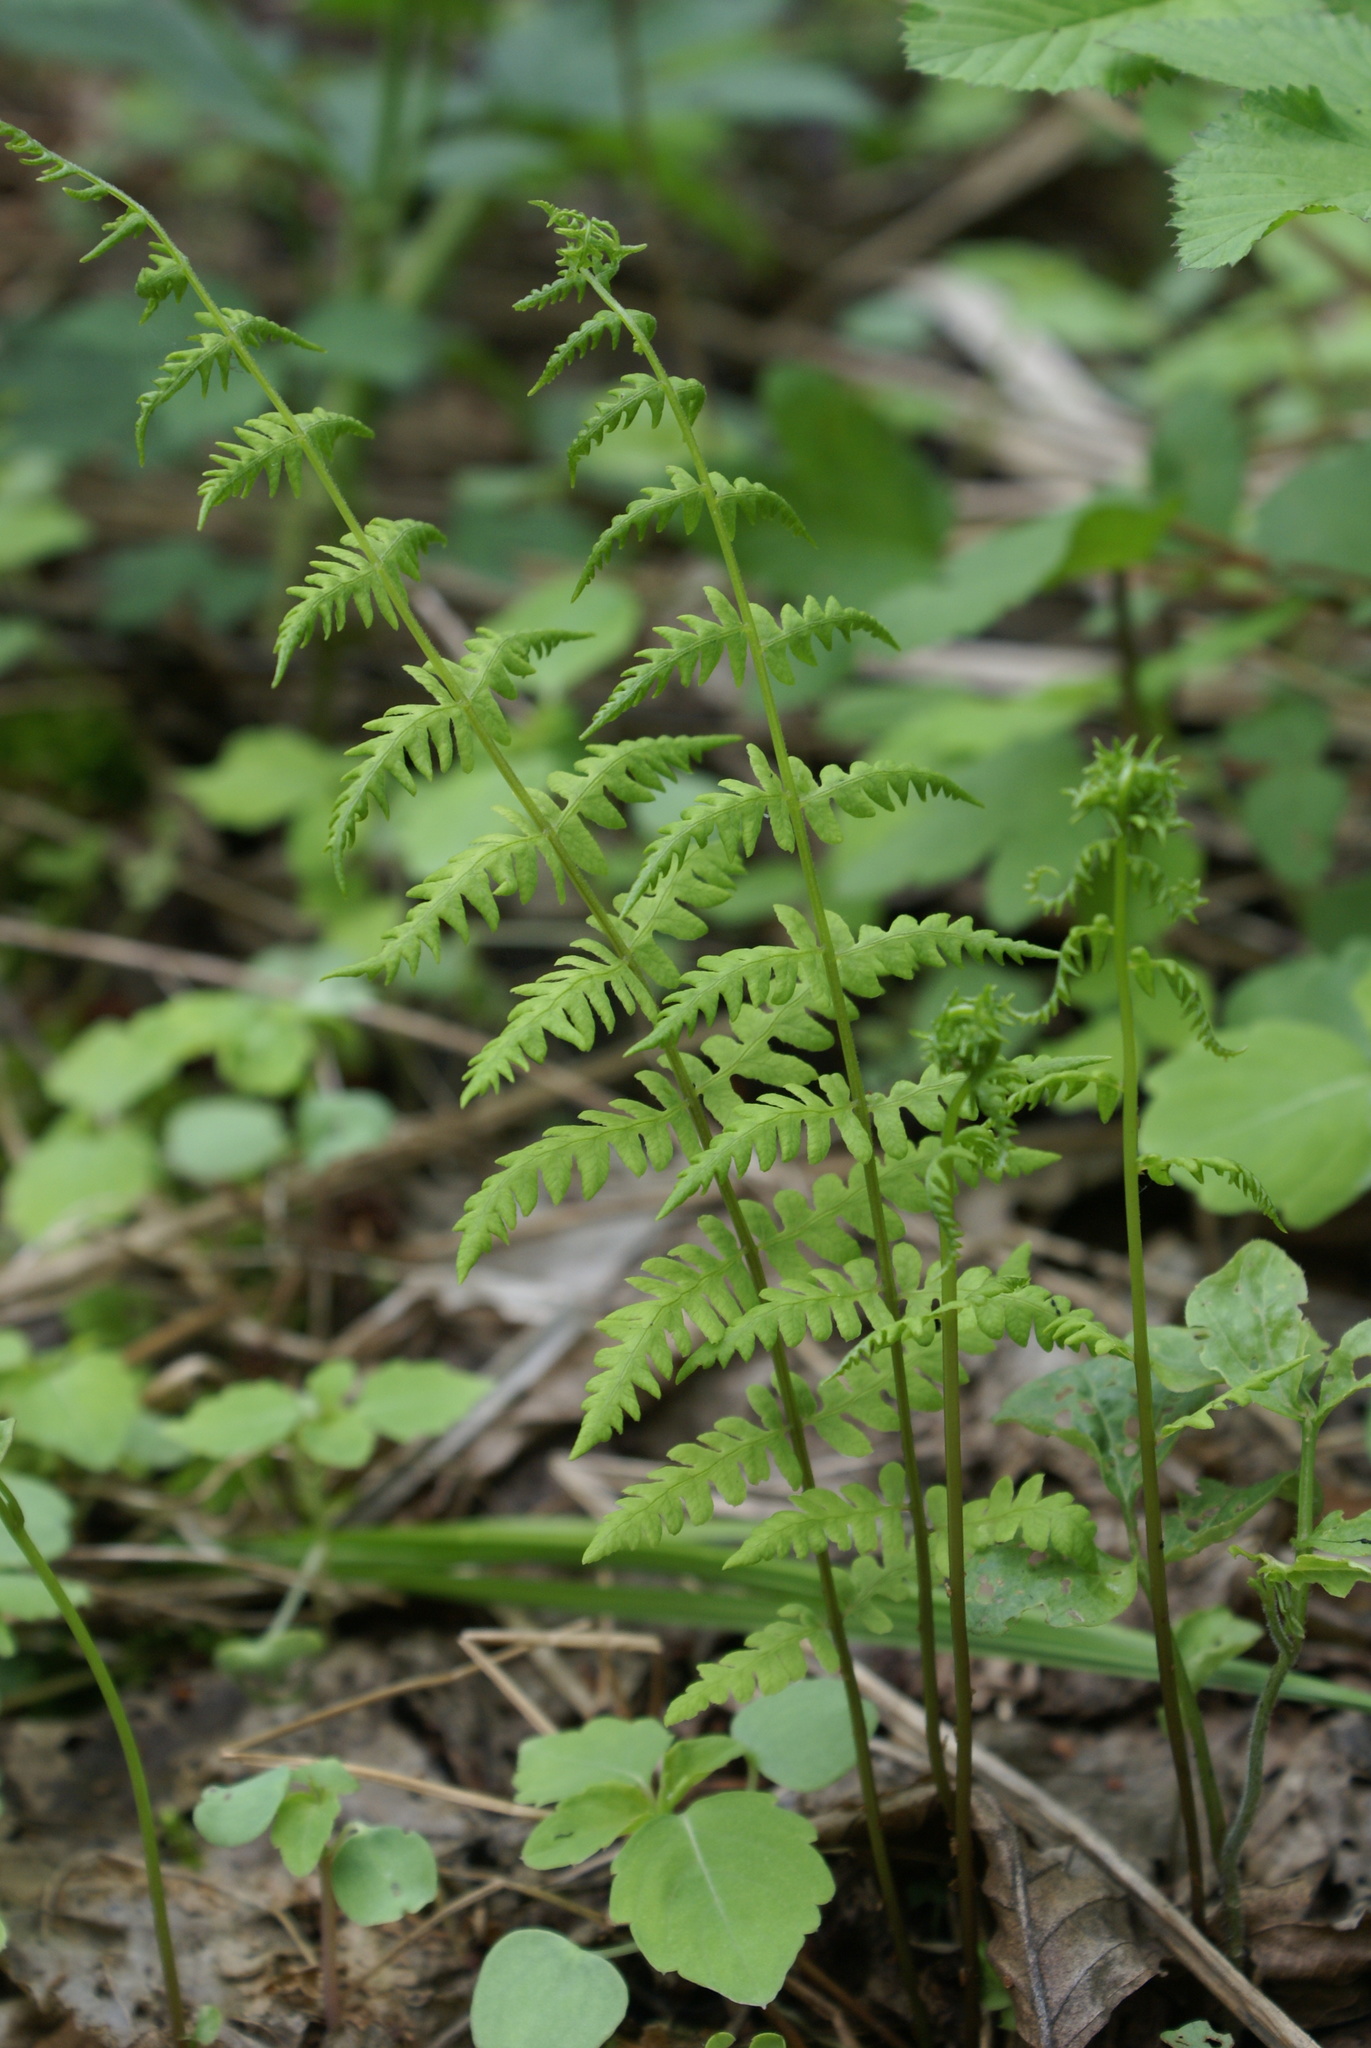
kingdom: Plantae
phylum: Tracheophyta
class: Polypodiopsida
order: Polypodiales
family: Thelypteridaceae
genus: Thelypteris
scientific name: Thelypteris palustris
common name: Marsh fern
